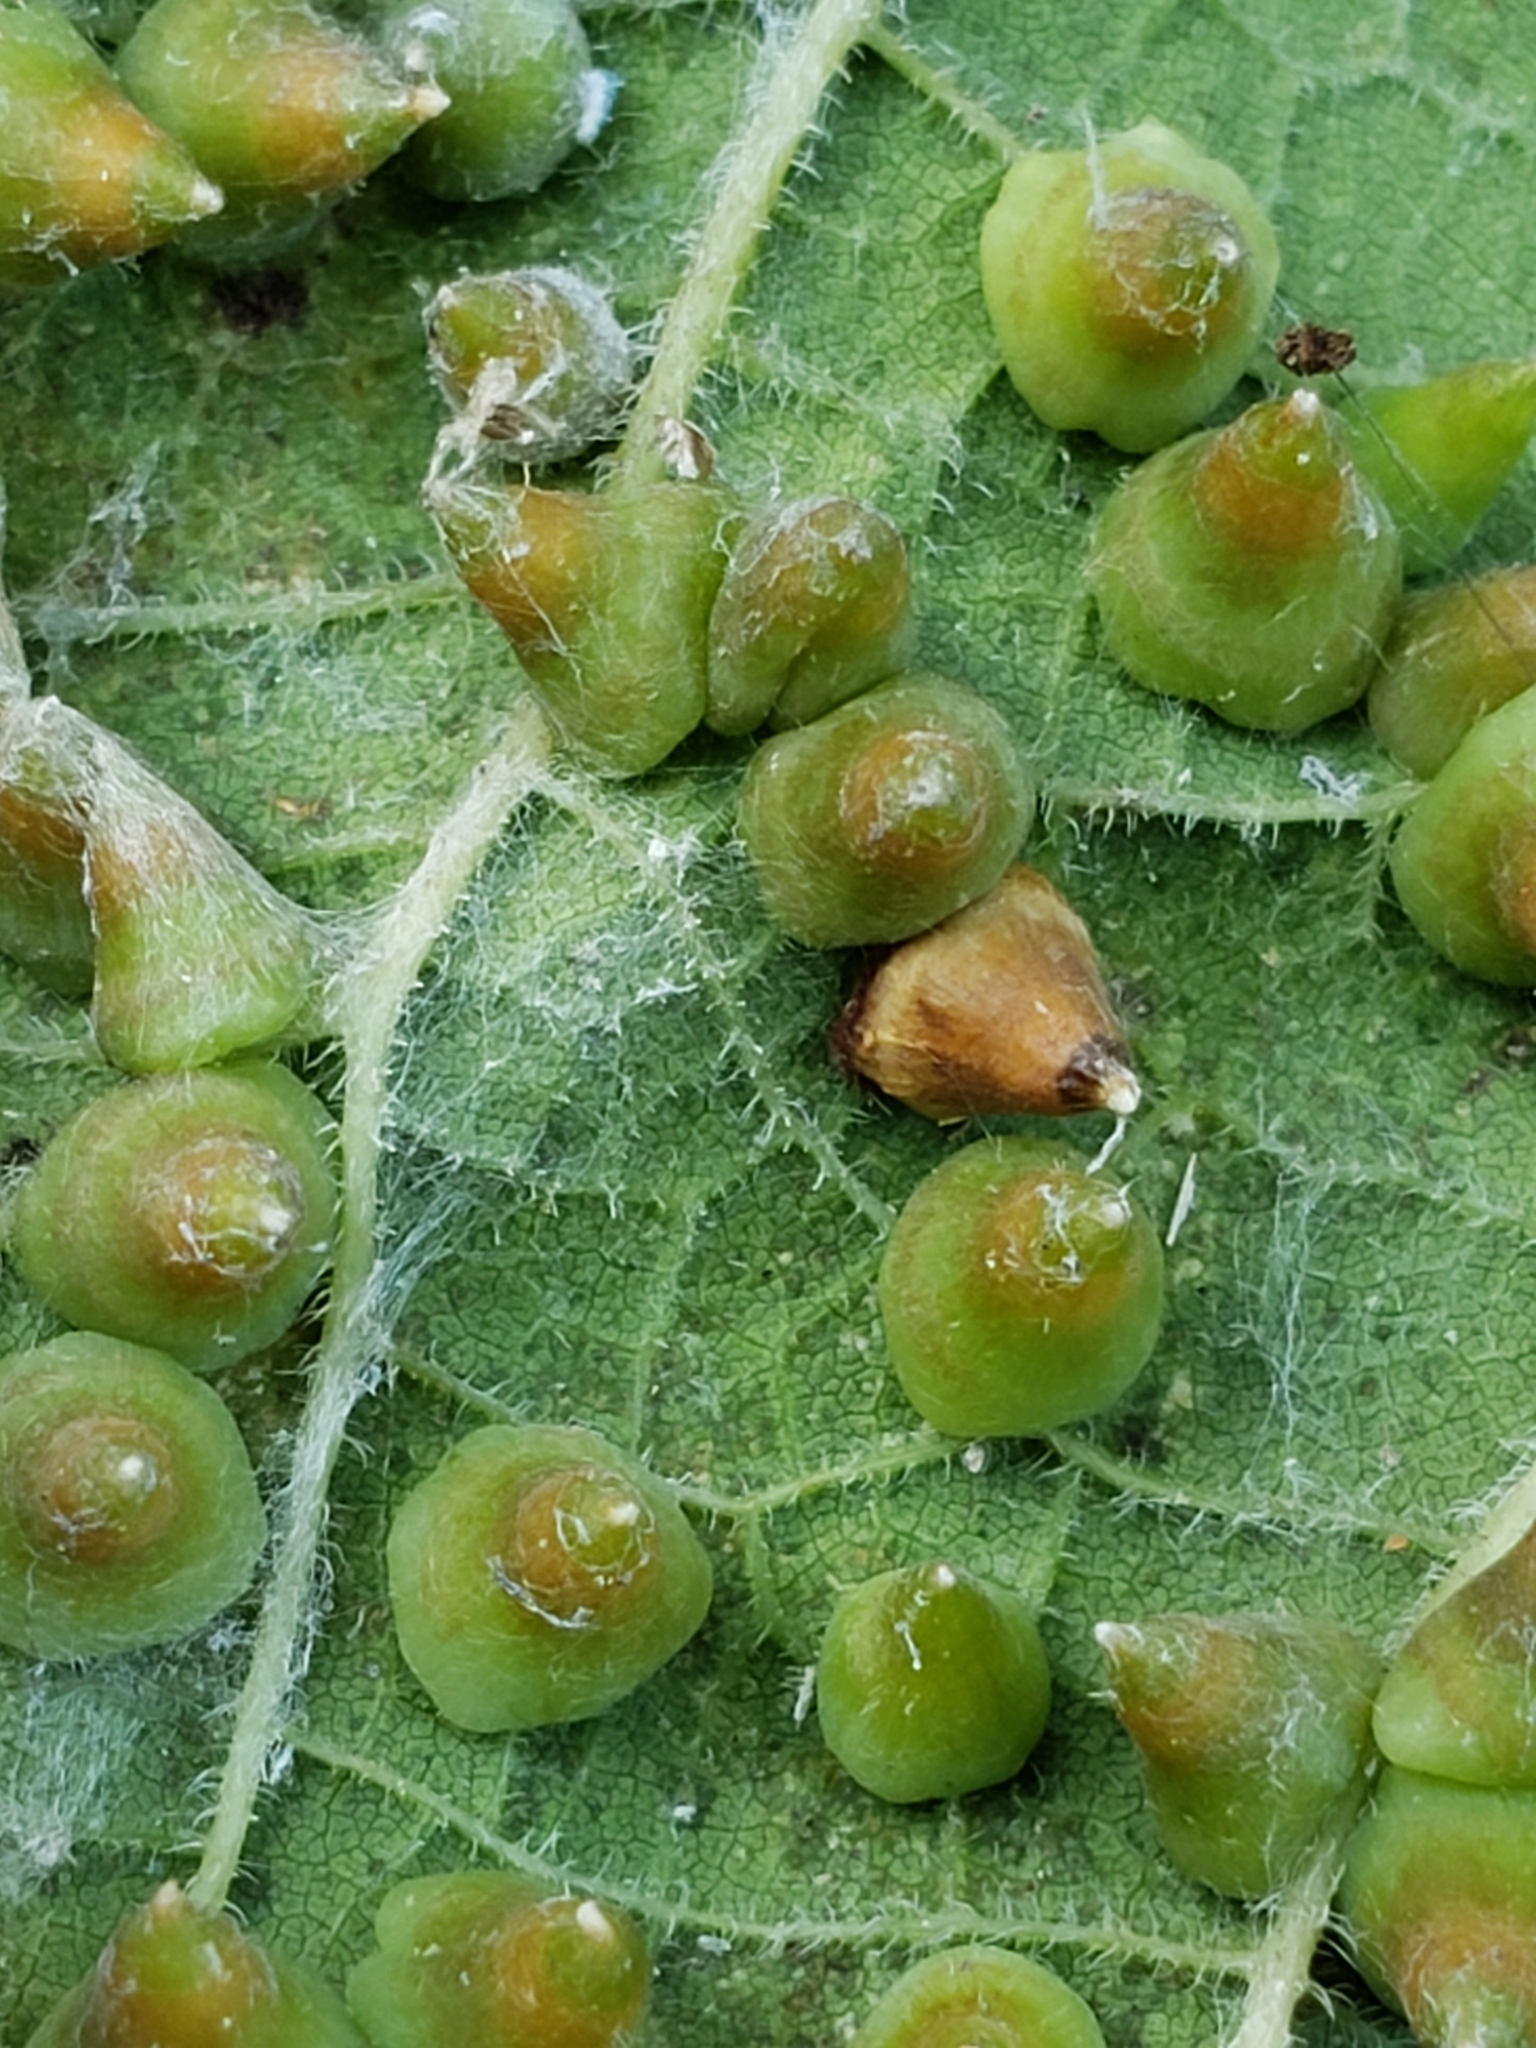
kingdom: Animalia
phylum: Arthropoda
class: Insecta
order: Diptera
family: Cecidomyiidae
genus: Celticecis
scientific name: Celticecis spiniformis
